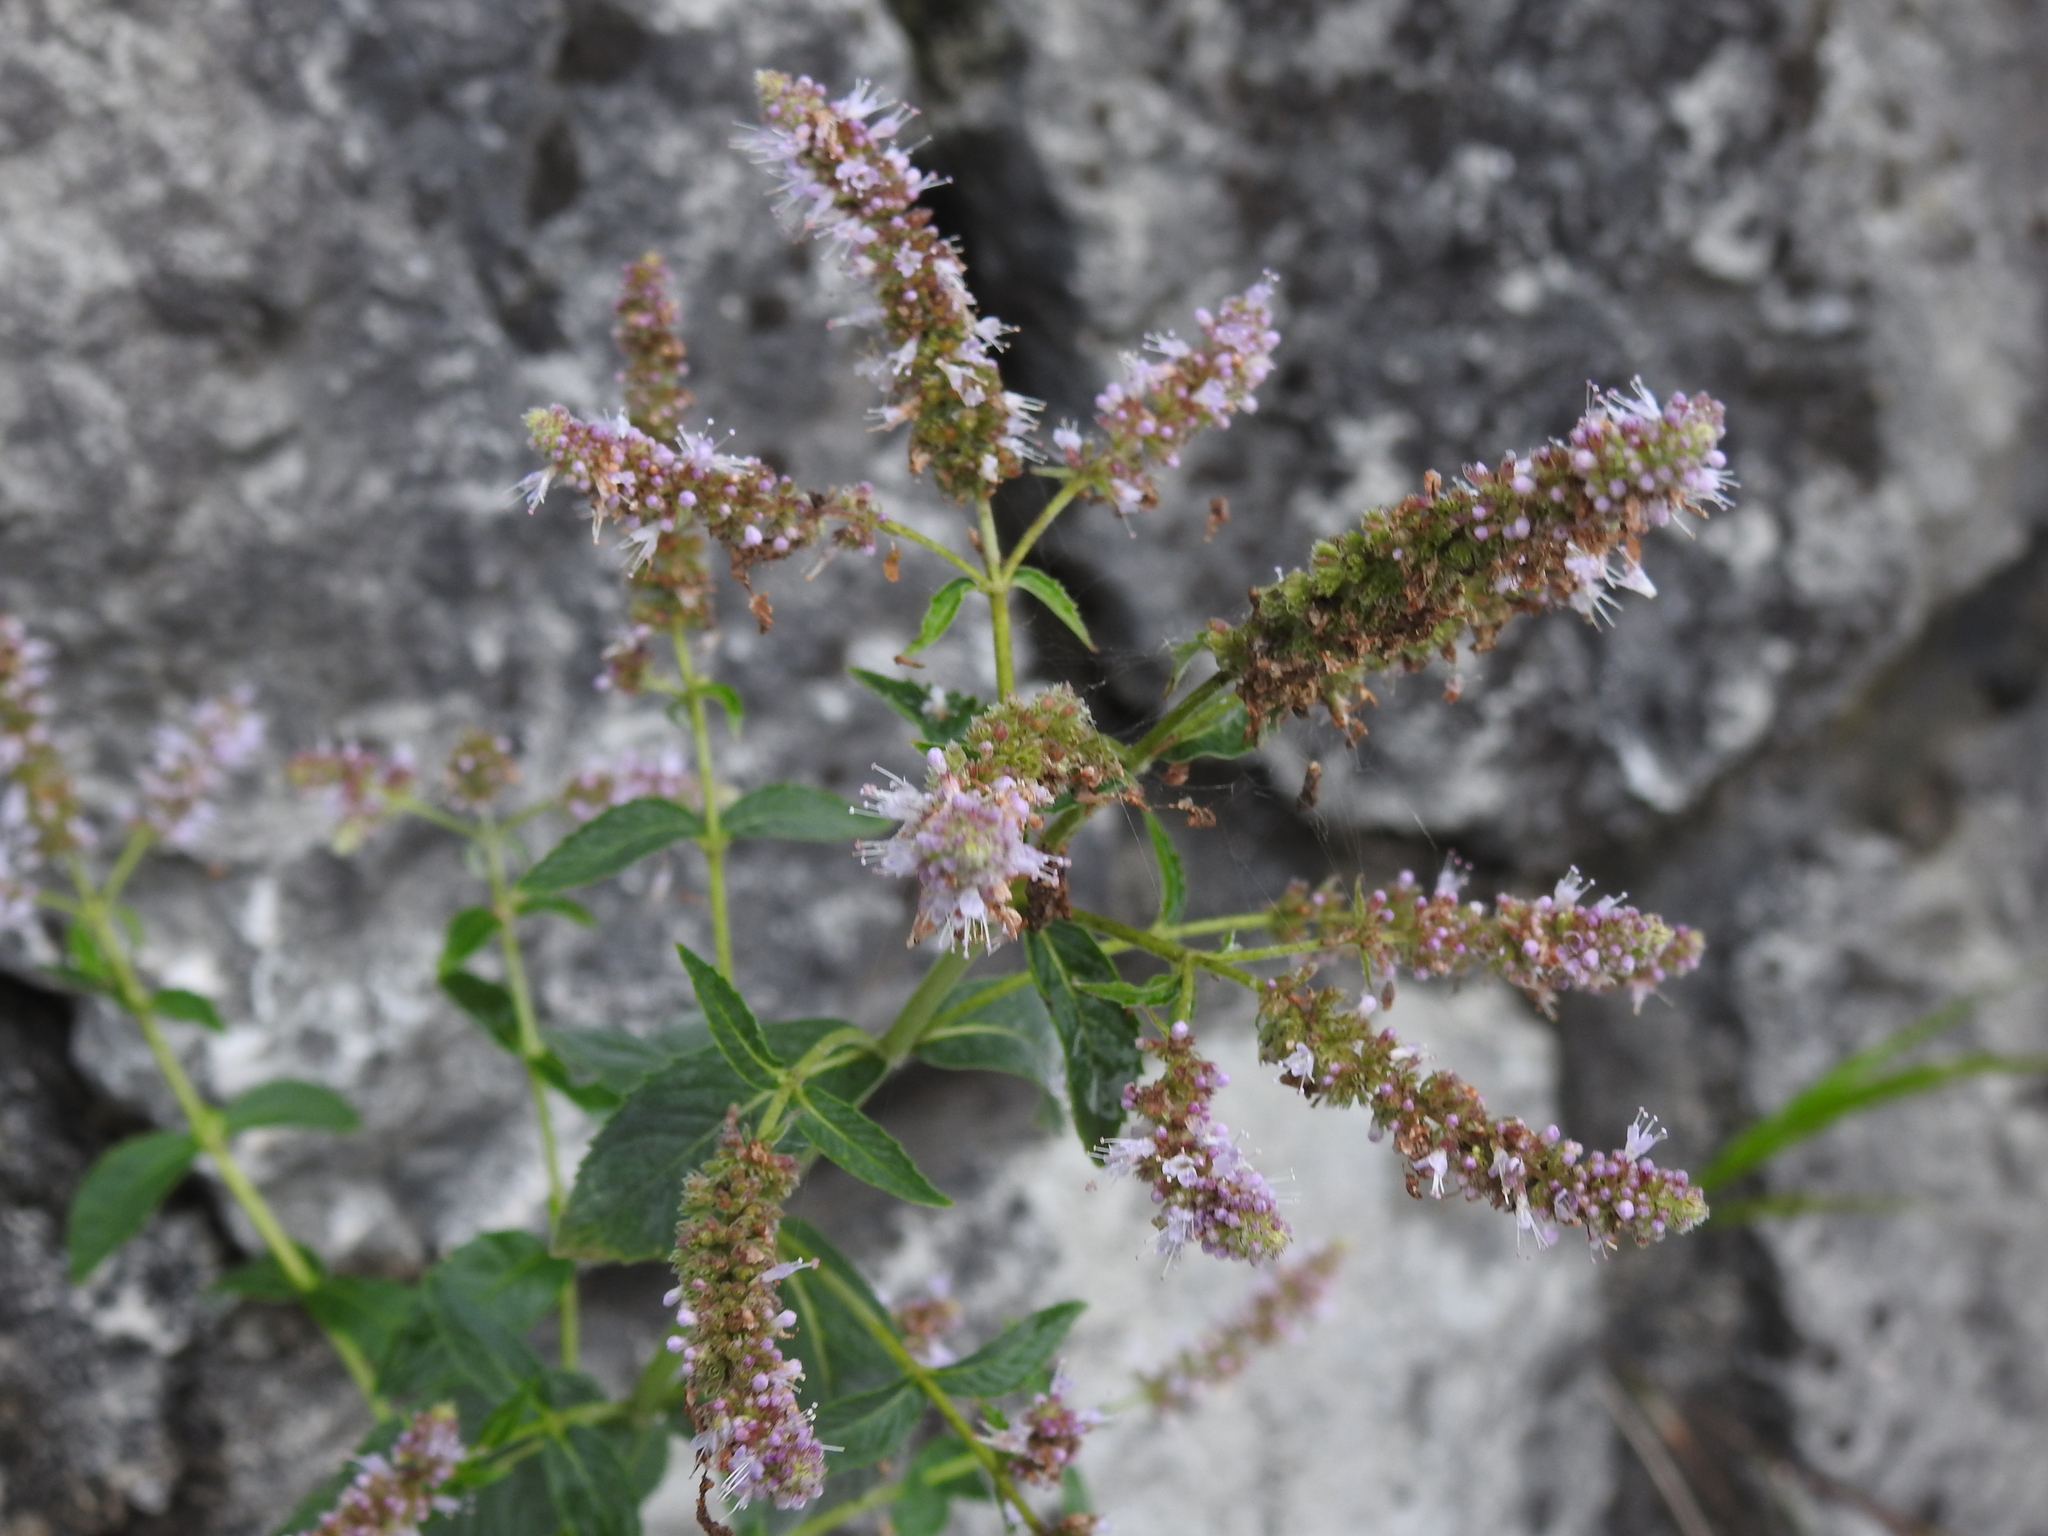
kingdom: Plantae
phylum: Tracheophyta
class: Magnoliopsida
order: Lamiales
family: Lamiaceae
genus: Mentha
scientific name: Mentha longifolia
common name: Horse mint
